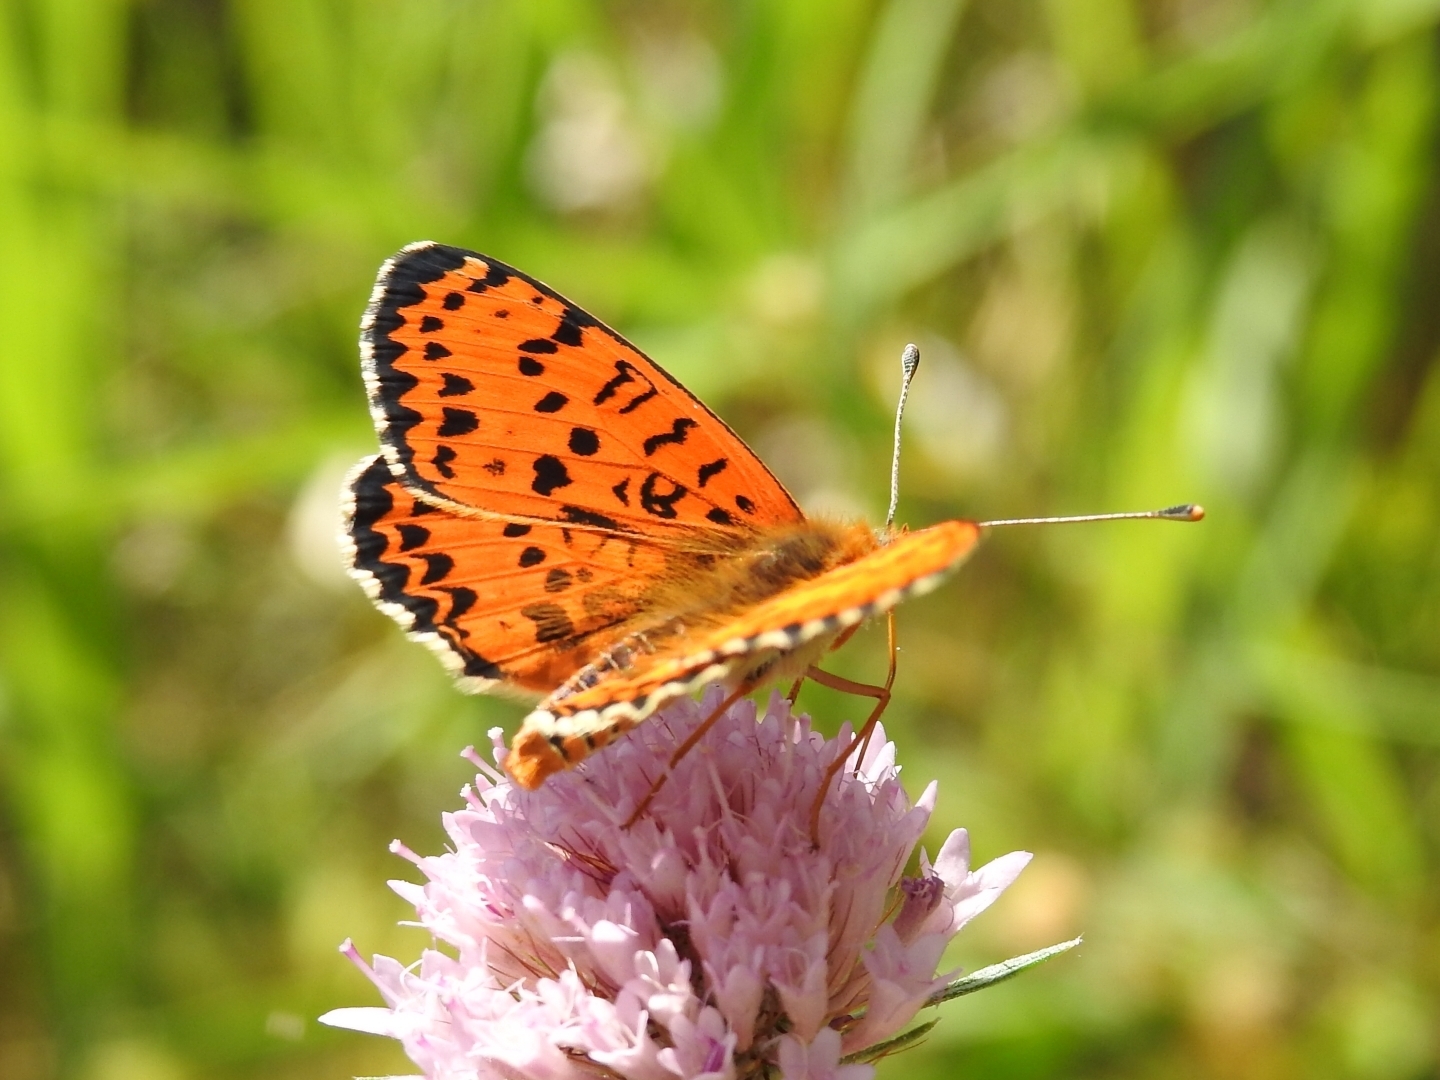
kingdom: Animalia
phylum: Arthropoda
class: Insecta
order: Lepidoptera
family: Nymphalidae
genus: Melitaea
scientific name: Melitaea didyma
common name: Spotted fritillary
